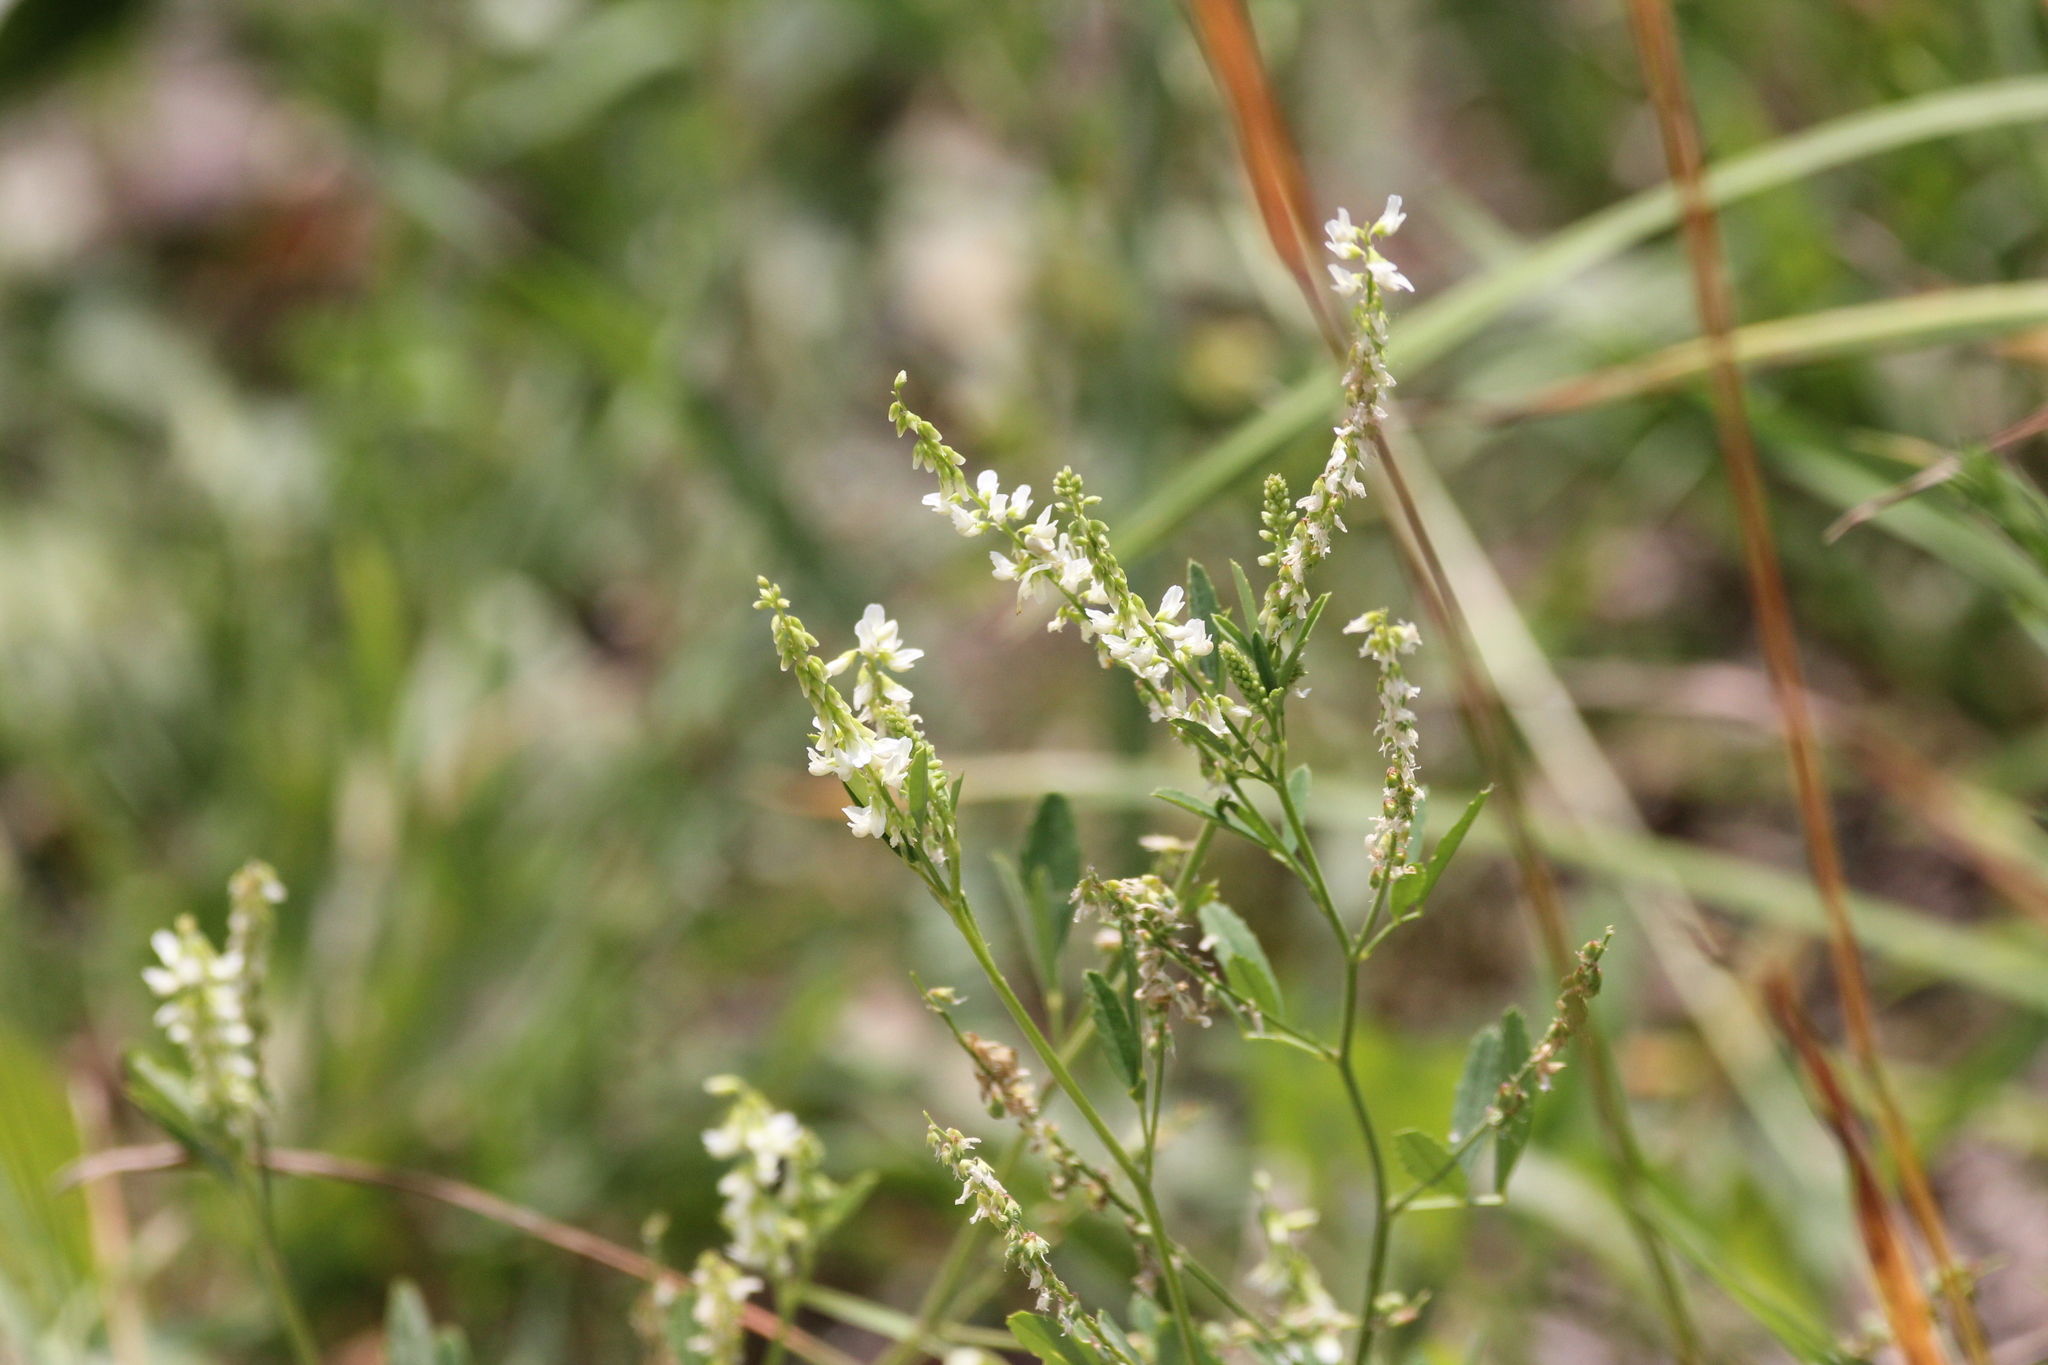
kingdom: Plantae
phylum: Tracheophyta
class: Magnoliopsida
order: Fabales
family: Fabaceae
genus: Melilotus
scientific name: Melilotus albus
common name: White melilot
